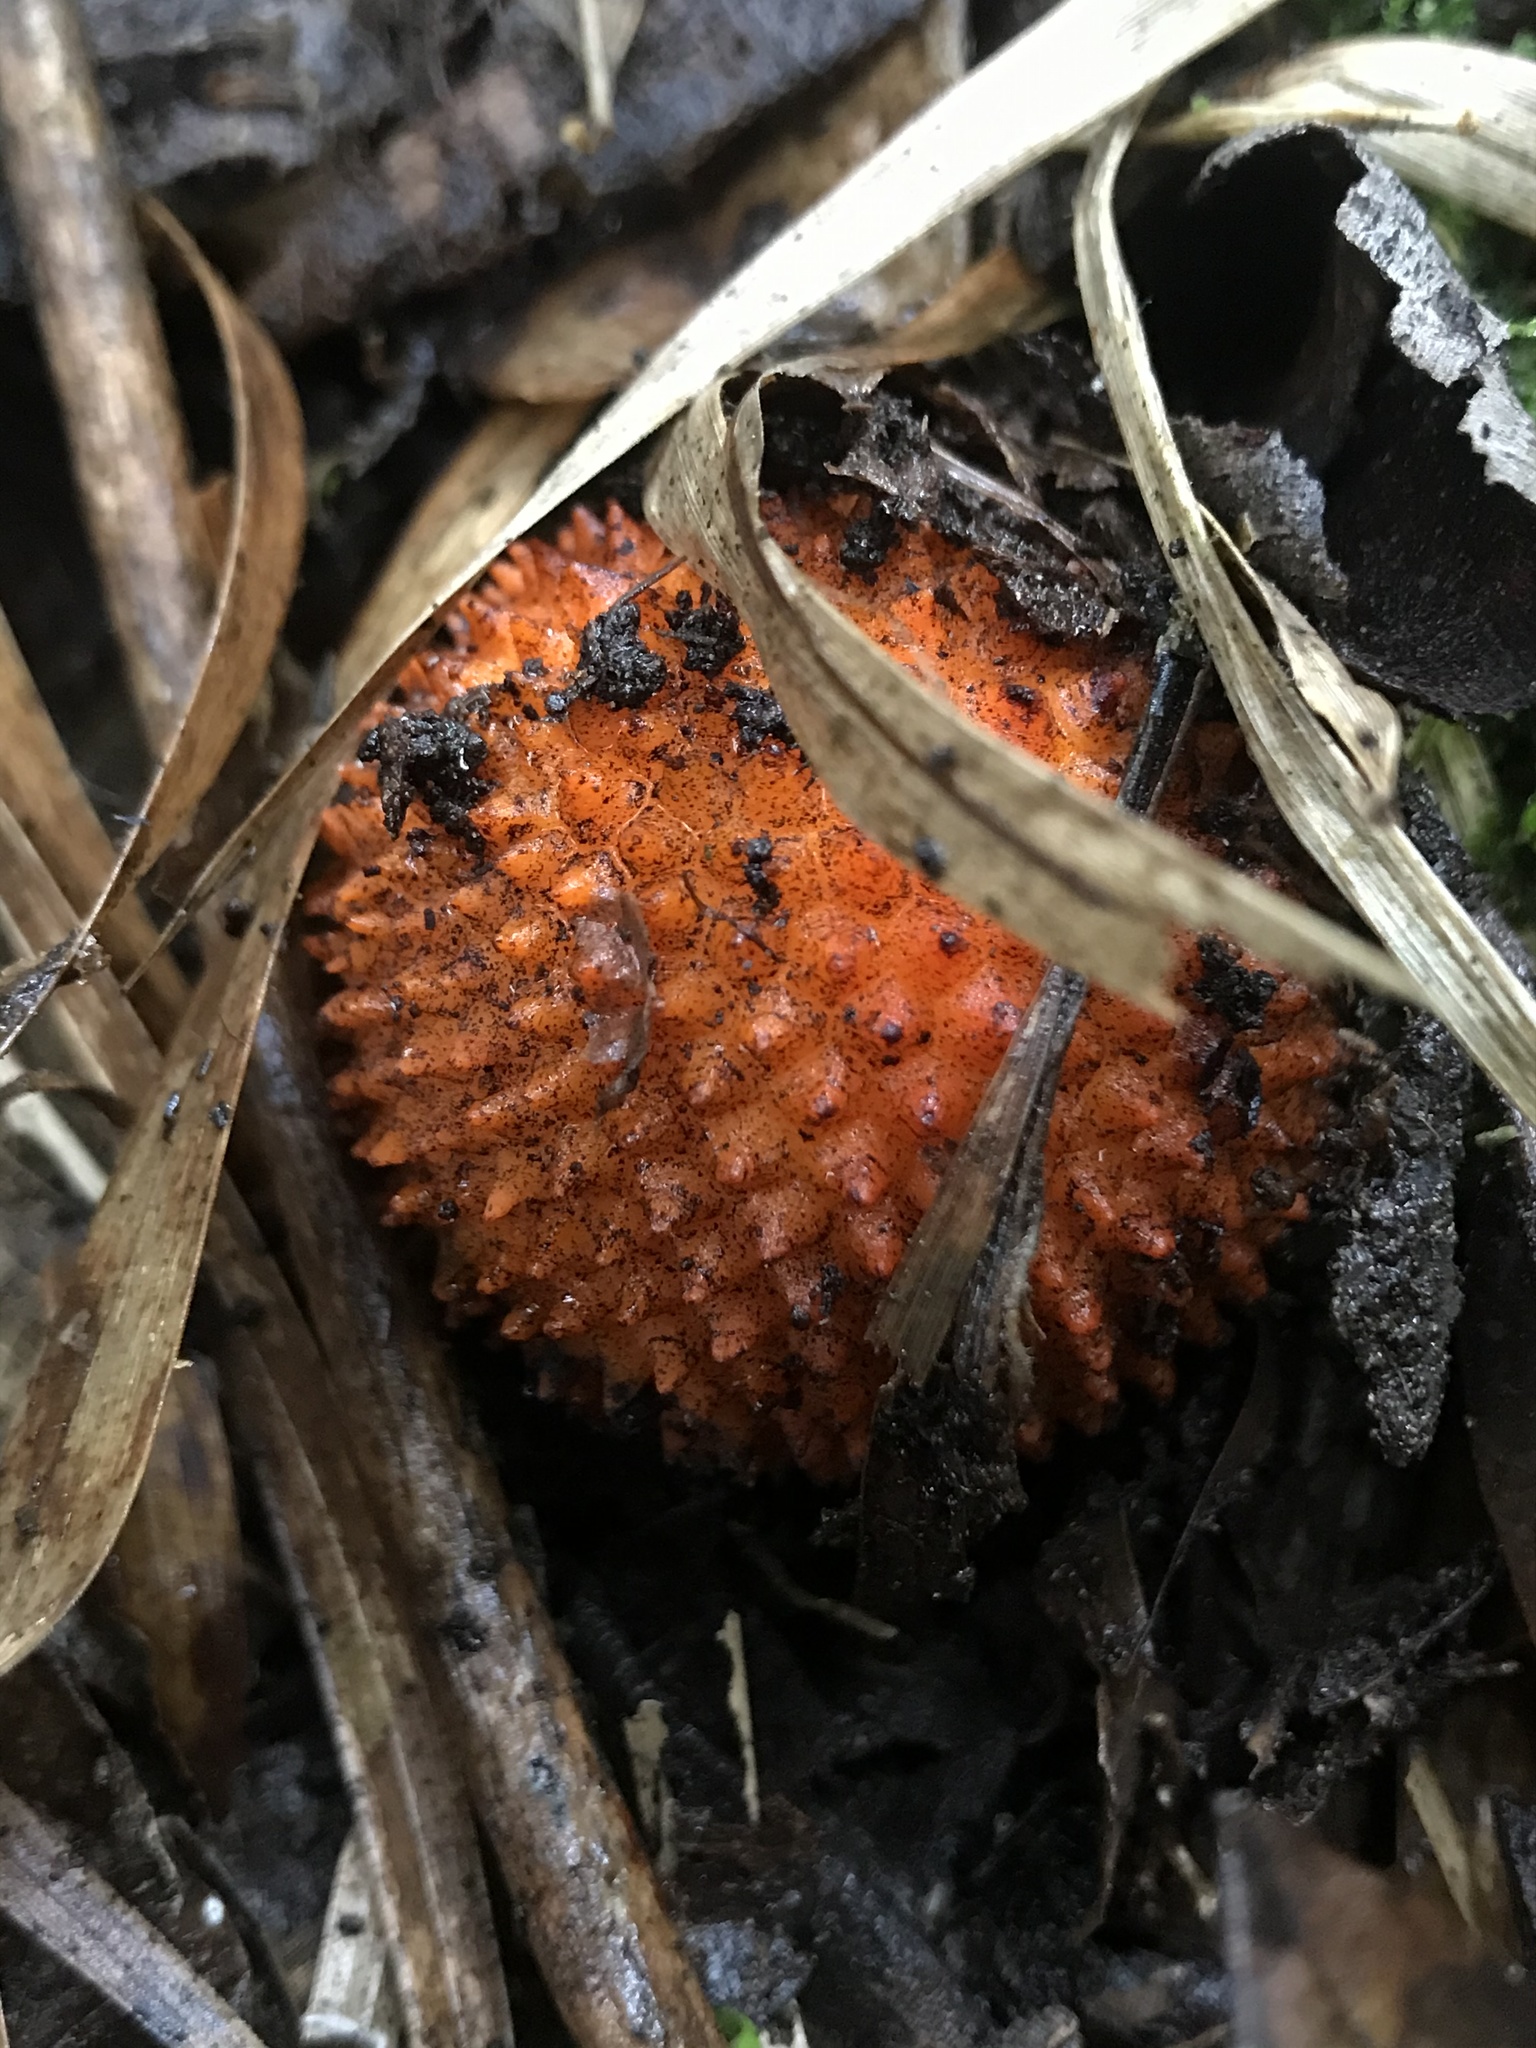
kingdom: Plantae
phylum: Tracheophyta
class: Magnoliopsida
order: Santalales
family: Balanophoraceae
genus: Corynaea
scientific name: Corynaea crassa
